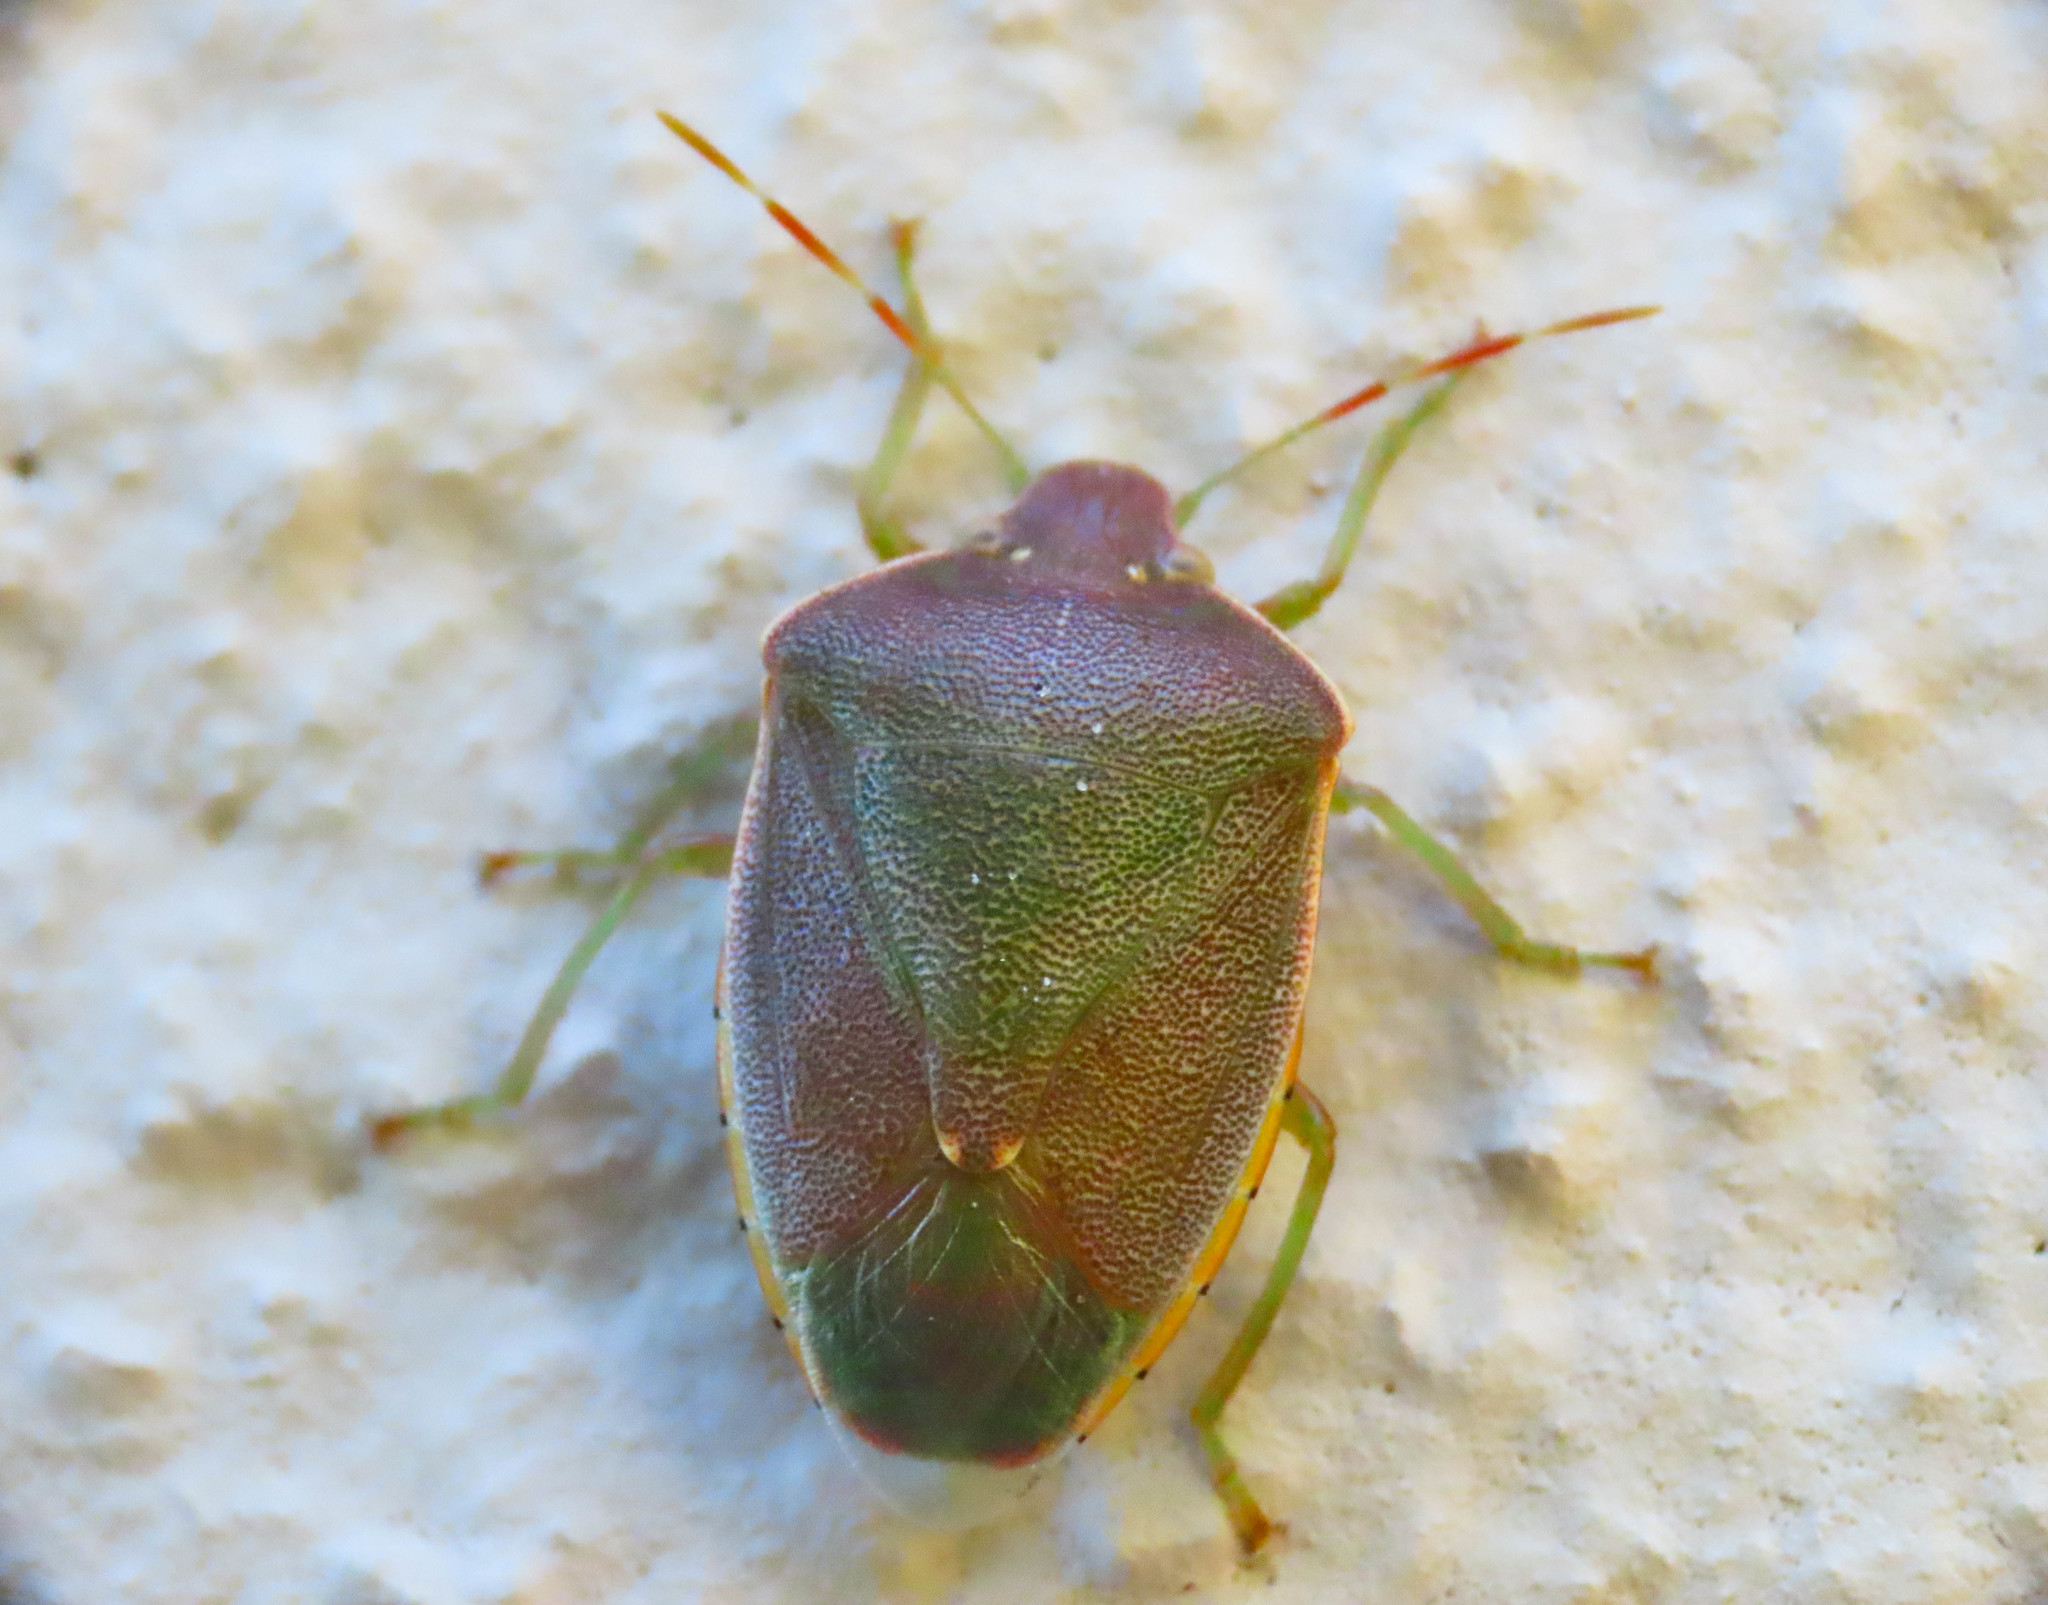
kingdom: Animalia
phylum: Arthropoda
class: Insecta
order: Hemiptera
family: Pentatomidae
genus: Acrosternum
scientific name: Acrosternum heegeri
